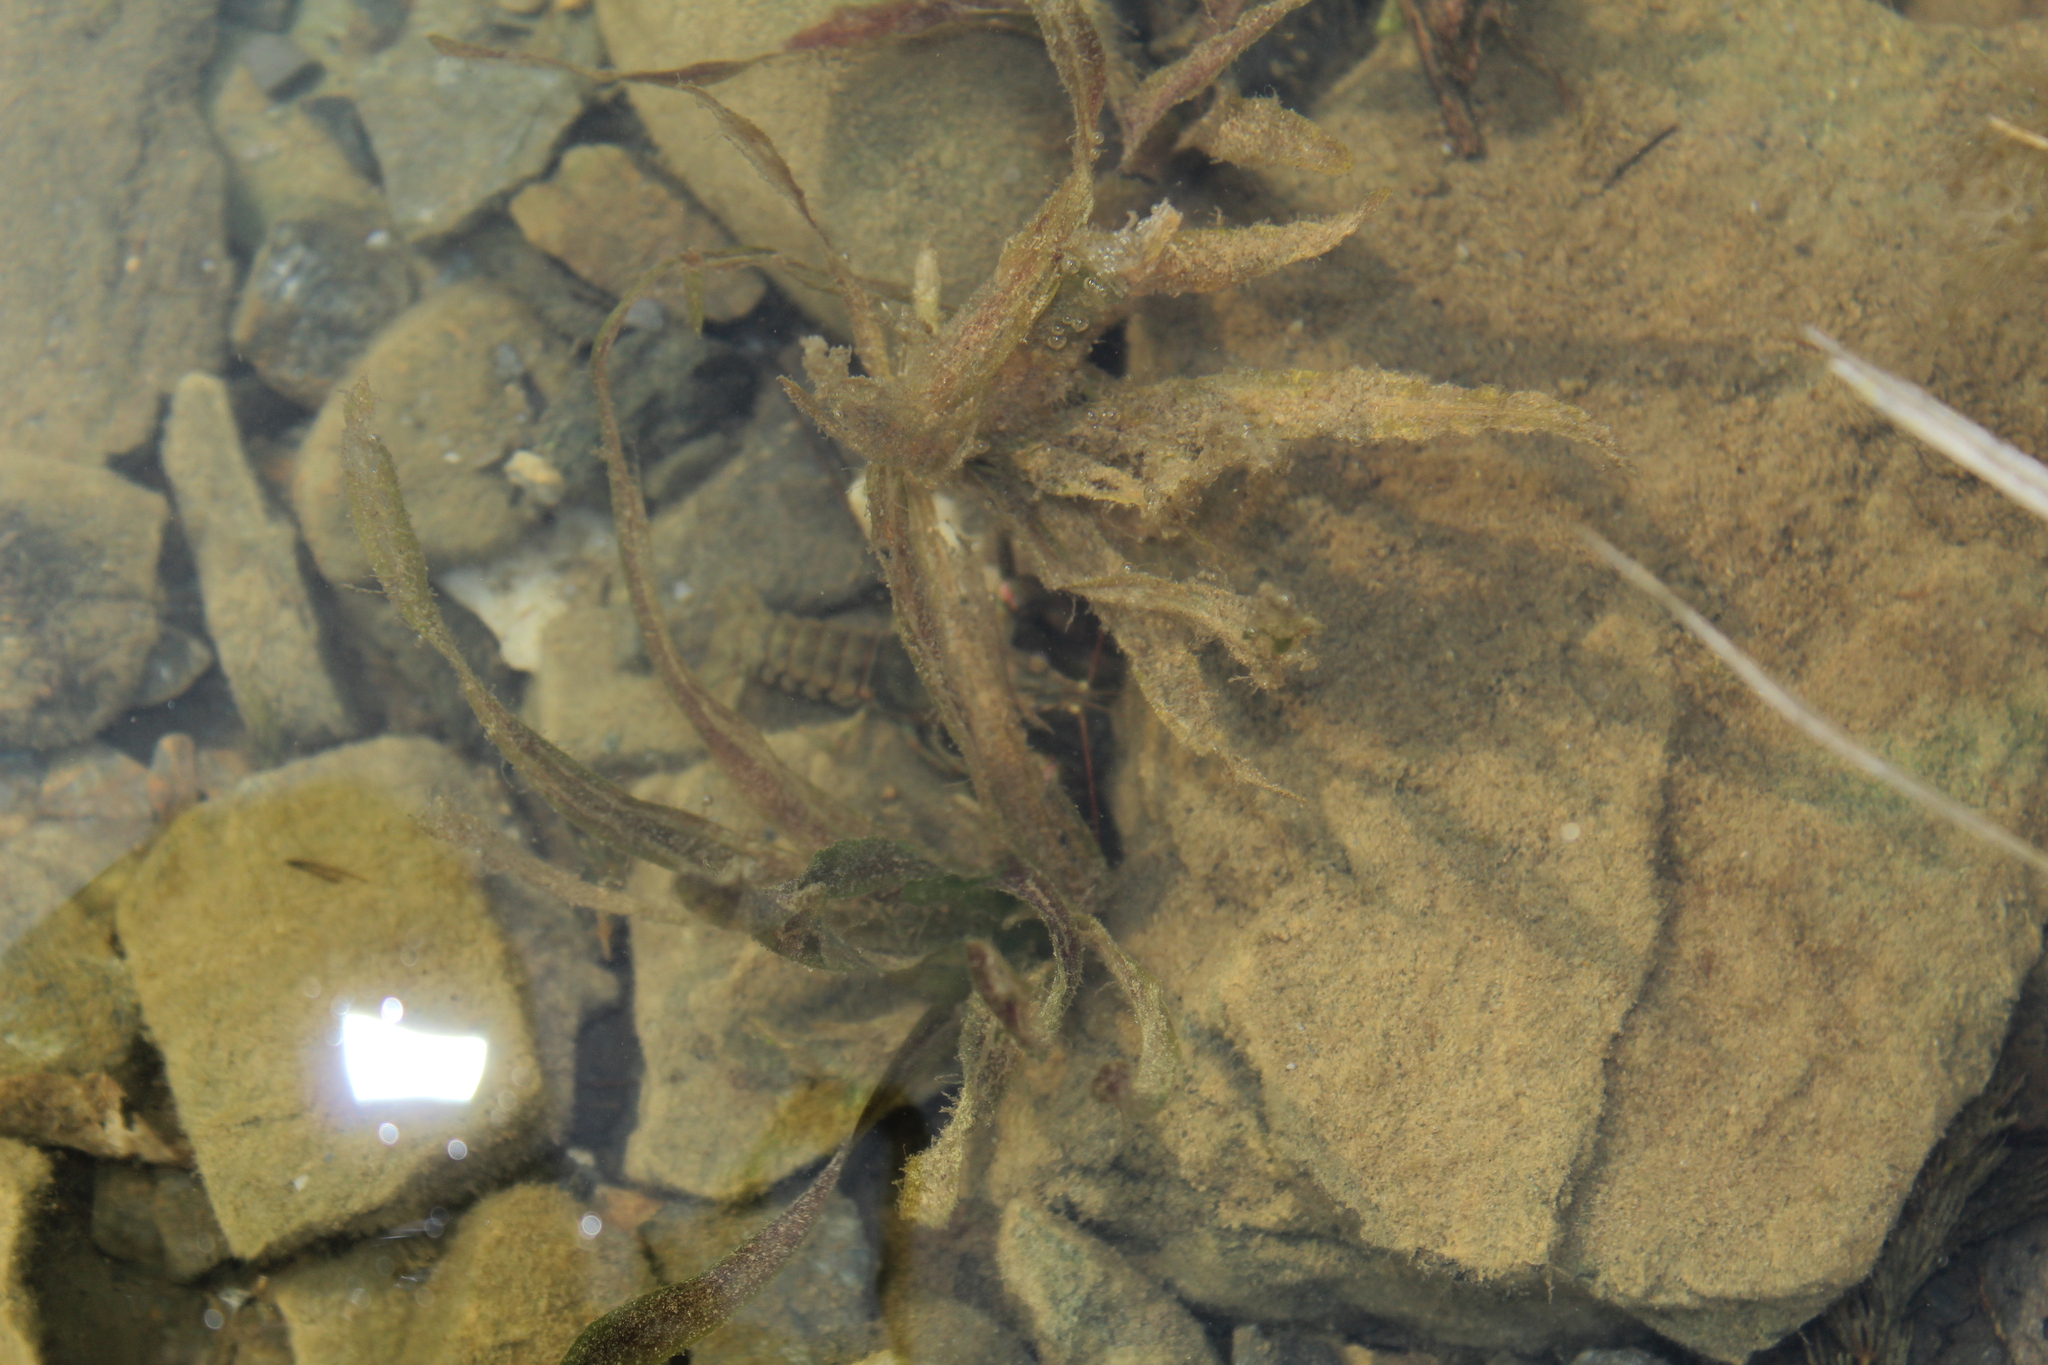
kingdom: Plantae
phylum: Tracheophyta
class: Liliopsida
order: Alismatales
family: Potamogetonaceae
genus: Potamogeton
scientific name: Potamogeton
